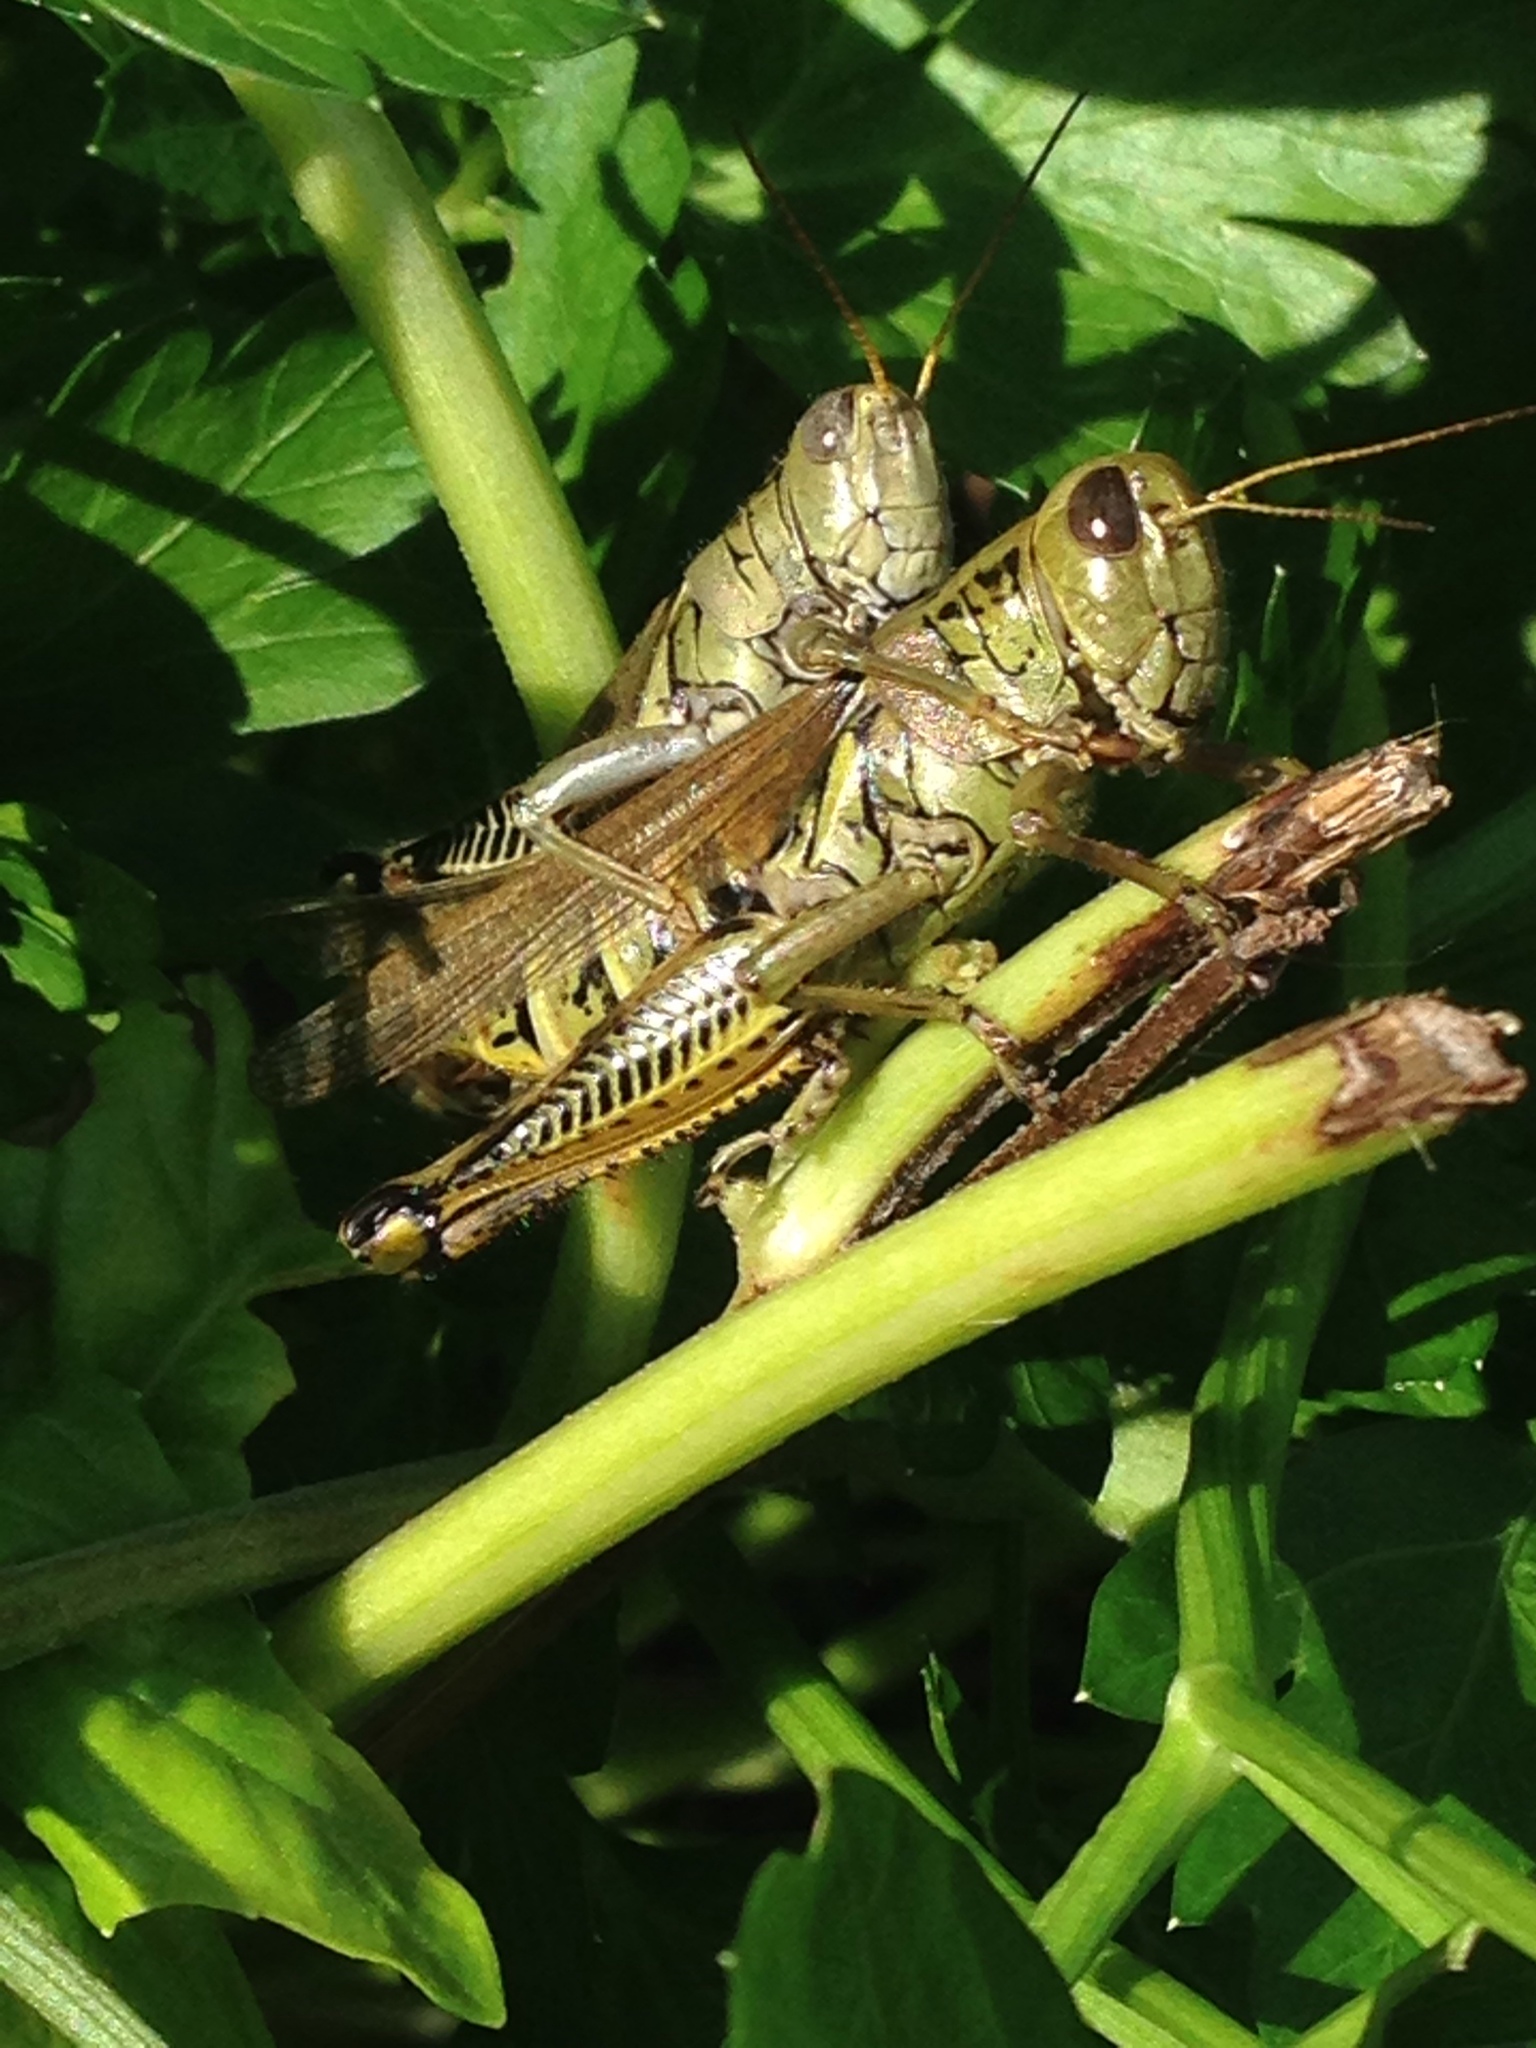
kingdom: Animalia
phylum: Arthropoda
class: Insecta
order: Orthoptera
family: Acrididae
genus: Melanoplus
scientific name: Melanoplus differentialis
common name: Differential grasshopper
